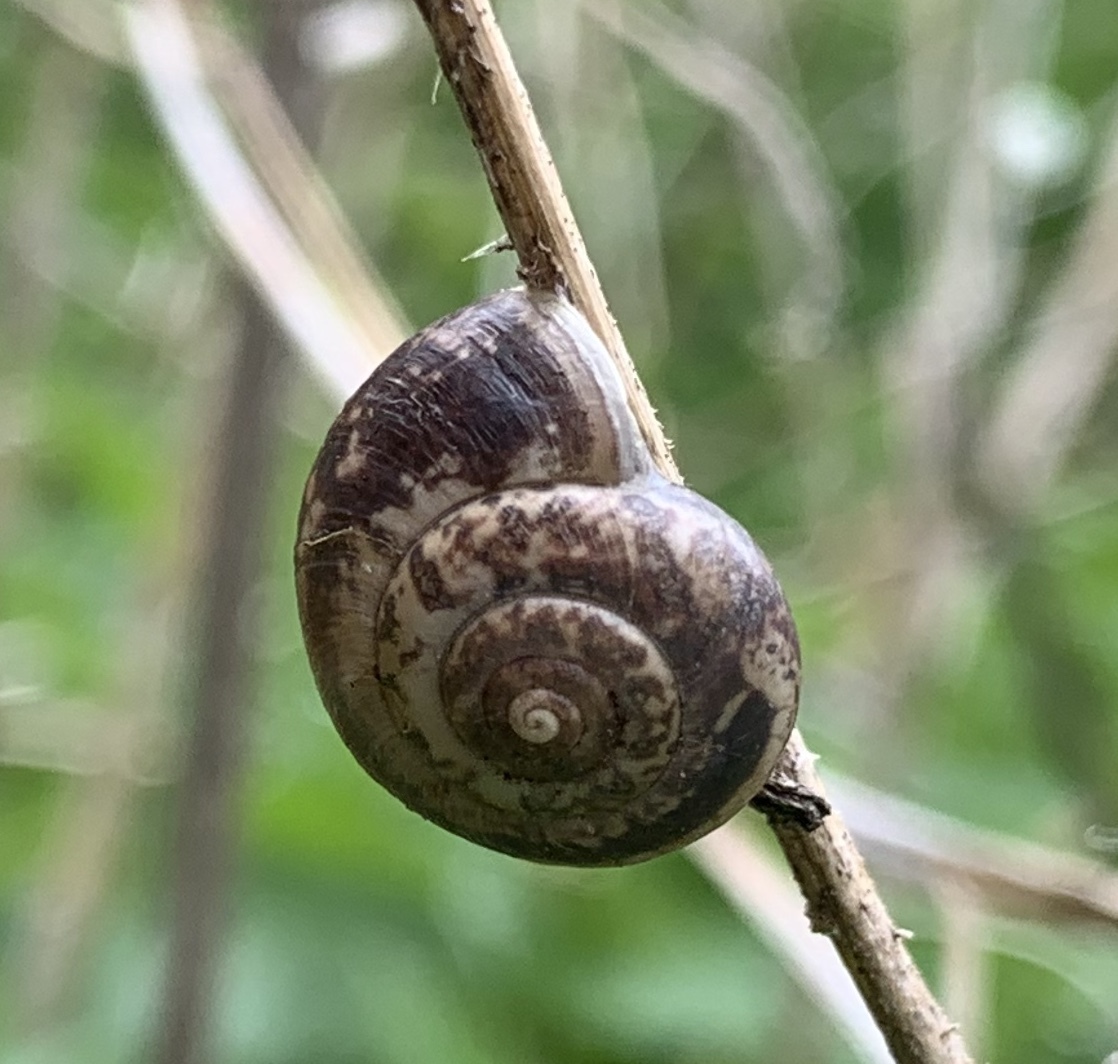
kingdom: Animalia
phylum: Mollusca
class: Gastropoda
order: Stylommatophora
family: Hygromiidae
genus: Monacha
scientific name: Monacha cantiana
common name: Kentish snail
